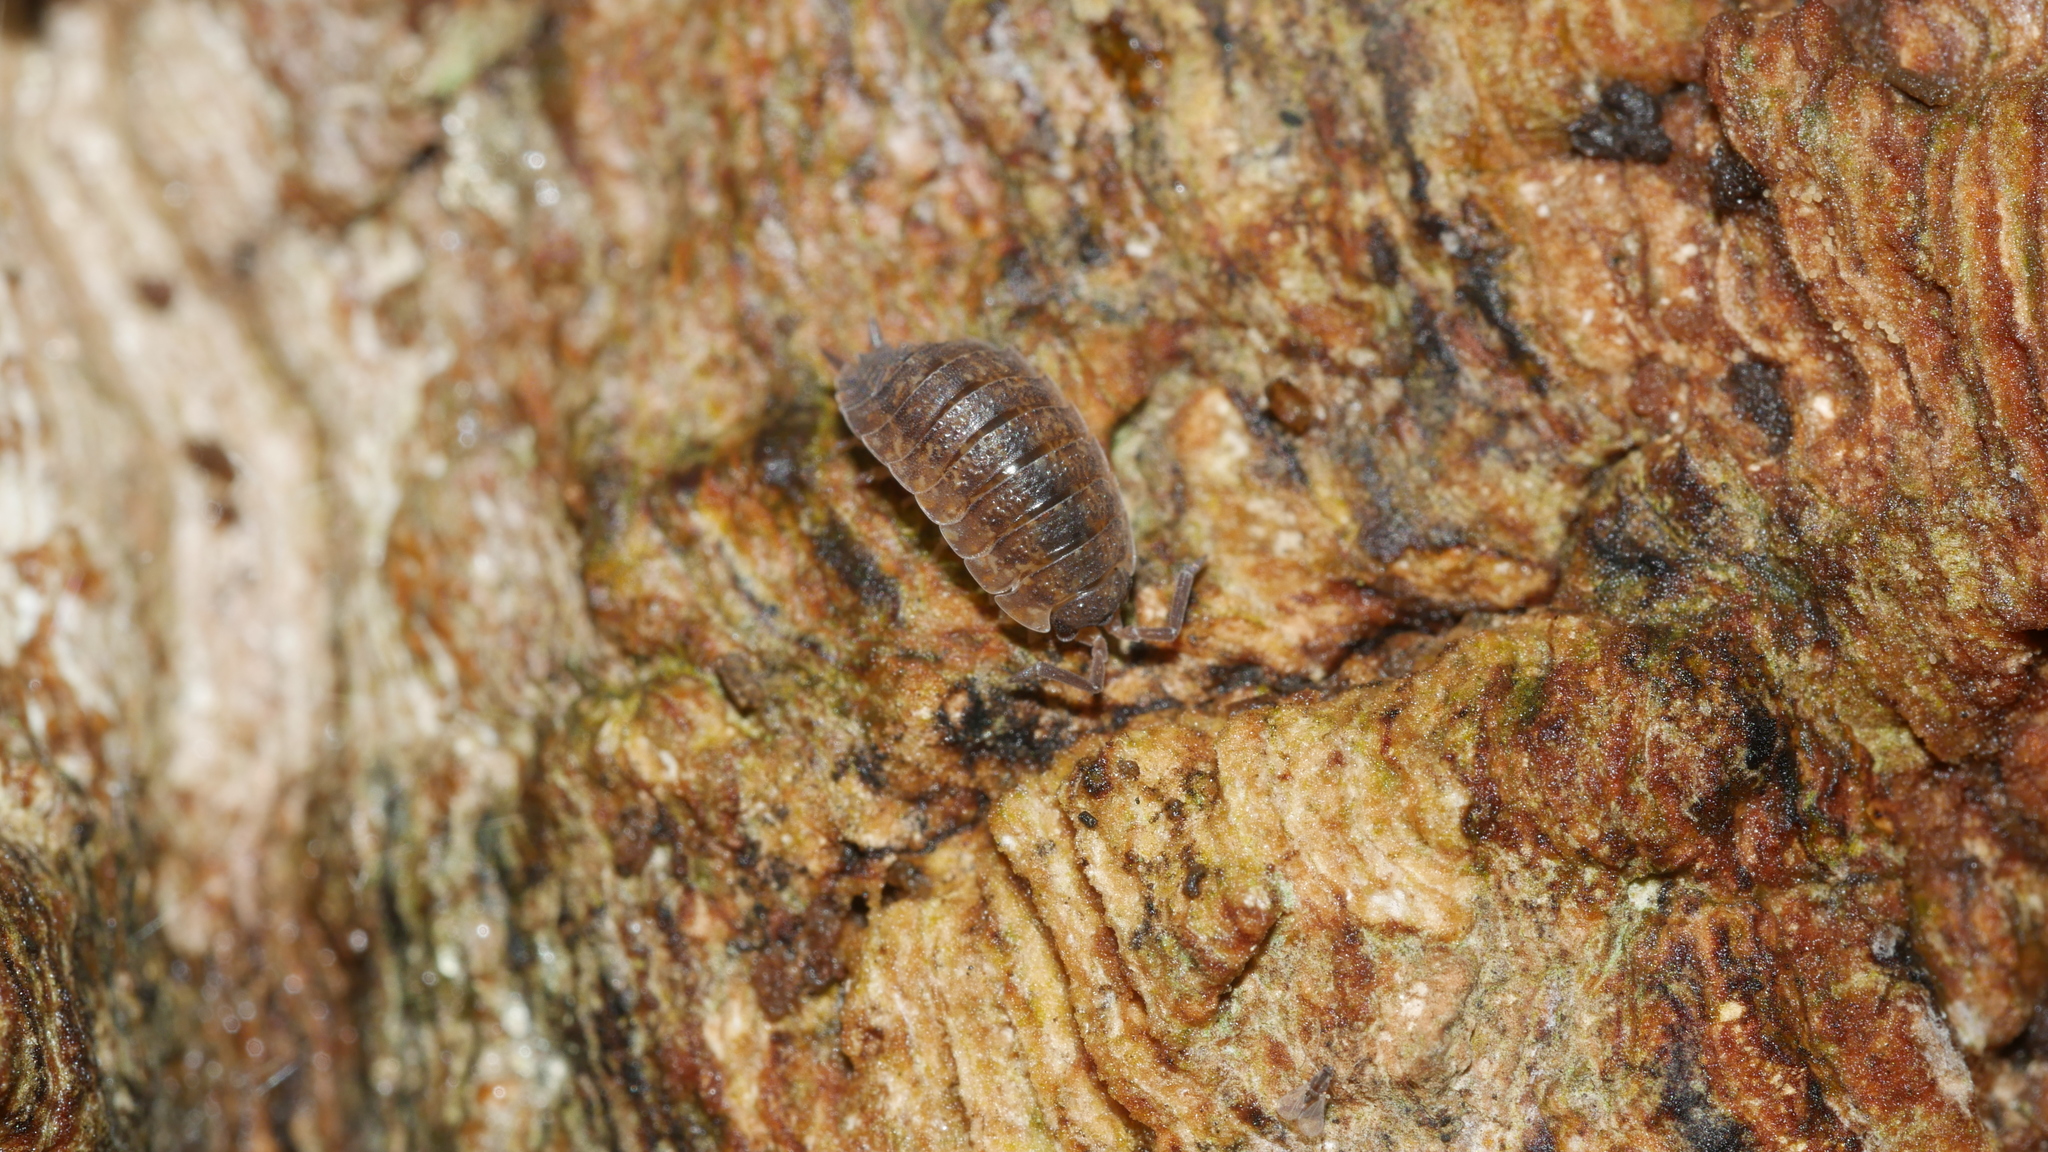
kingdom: Animalia
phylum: Arthropoda
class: Malacostraca
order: Isopoda
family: Porcellionidae
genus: Porcellio
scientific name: Porcellio scaber
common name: Common rough woodlouse
